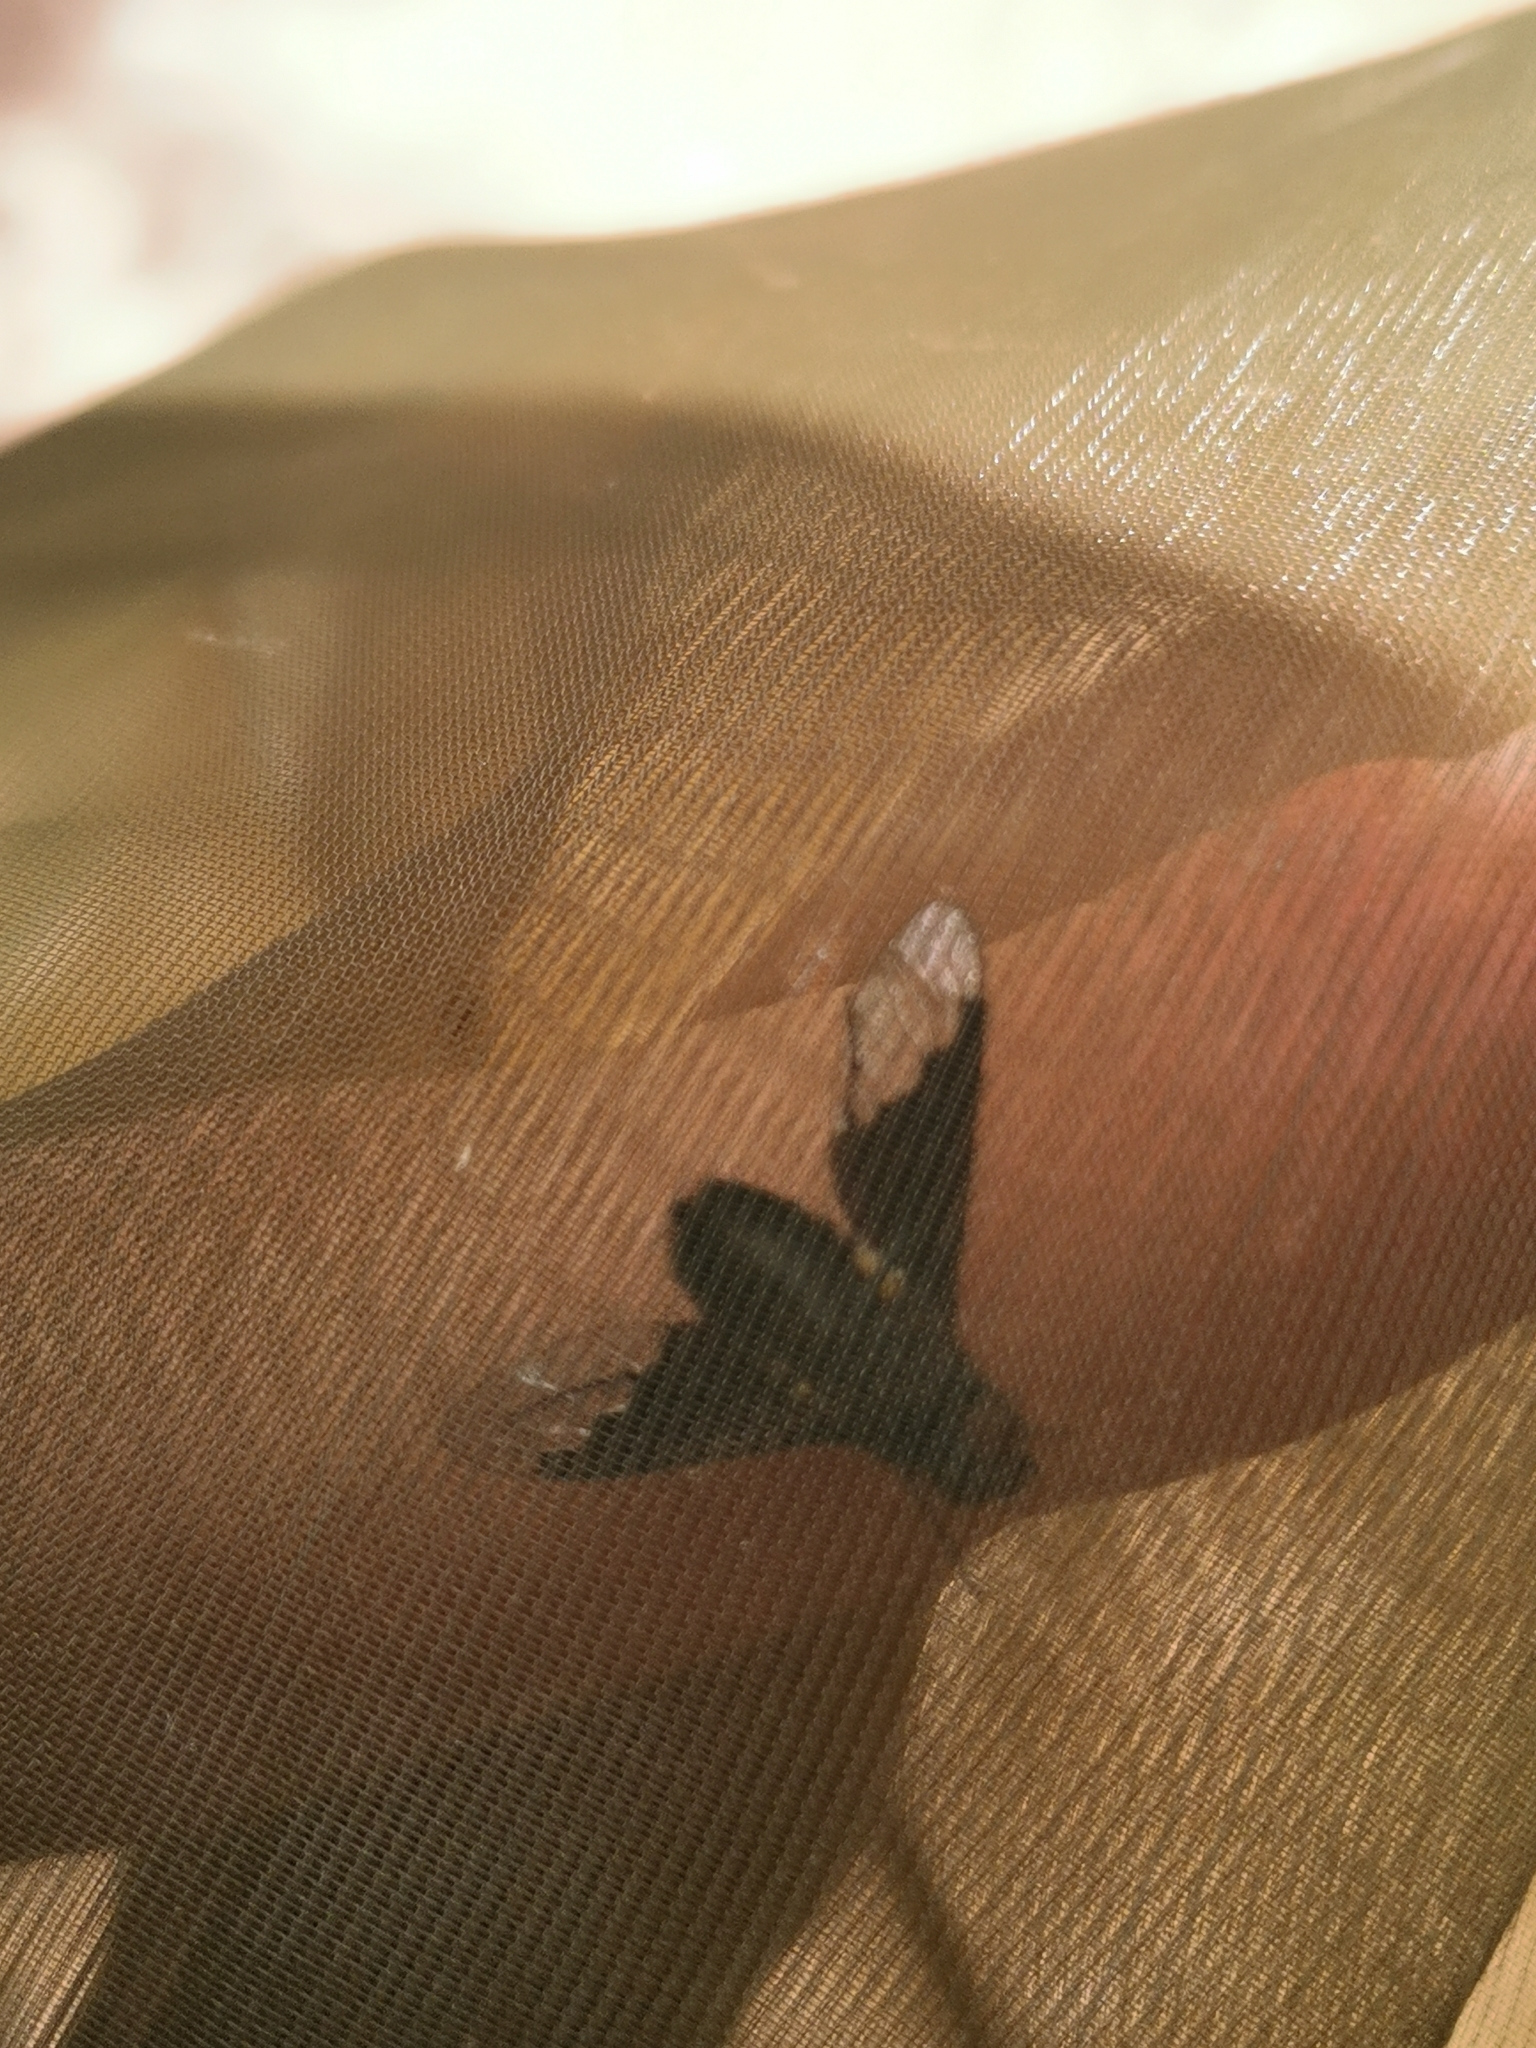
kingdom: Animalia
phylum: Arthropoda
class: Insecta
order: Diptera
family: Bombyliidae
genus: Hemipenthes
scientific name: Hemipenthes morio
